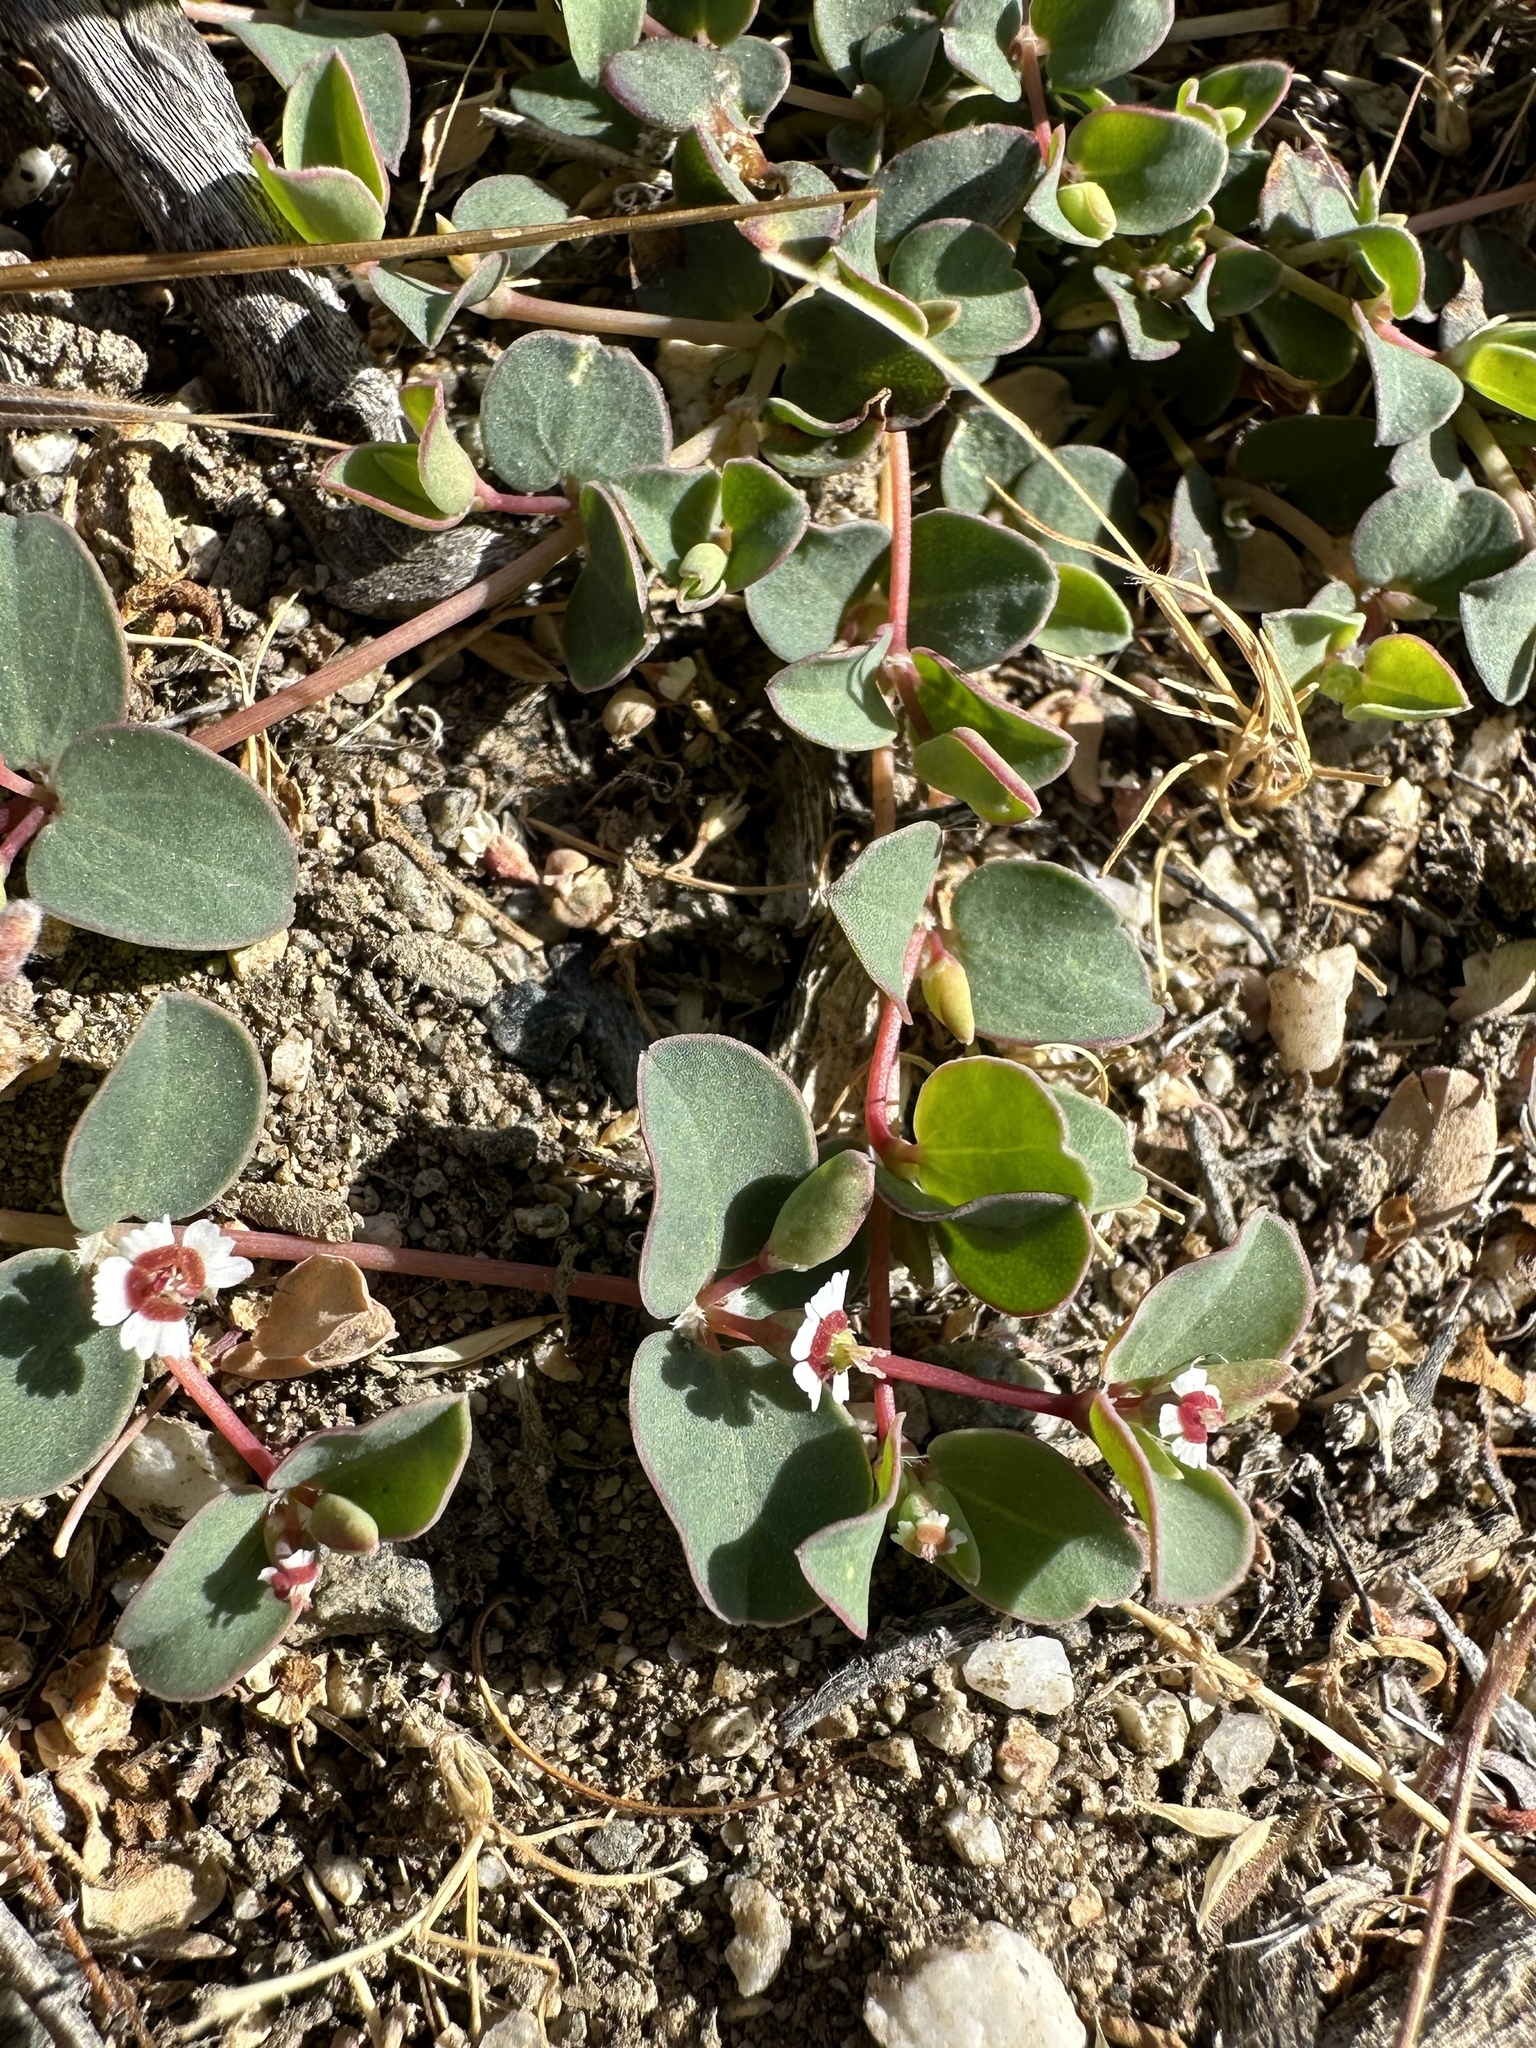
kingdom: Plantae
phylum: Tracheophyta
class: Magnoliopsida
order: Malpighiales
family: Euphorbiaceae
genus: Euphorbia
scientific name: Euphorbia albomarginata
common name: Whitemargin sandmat
